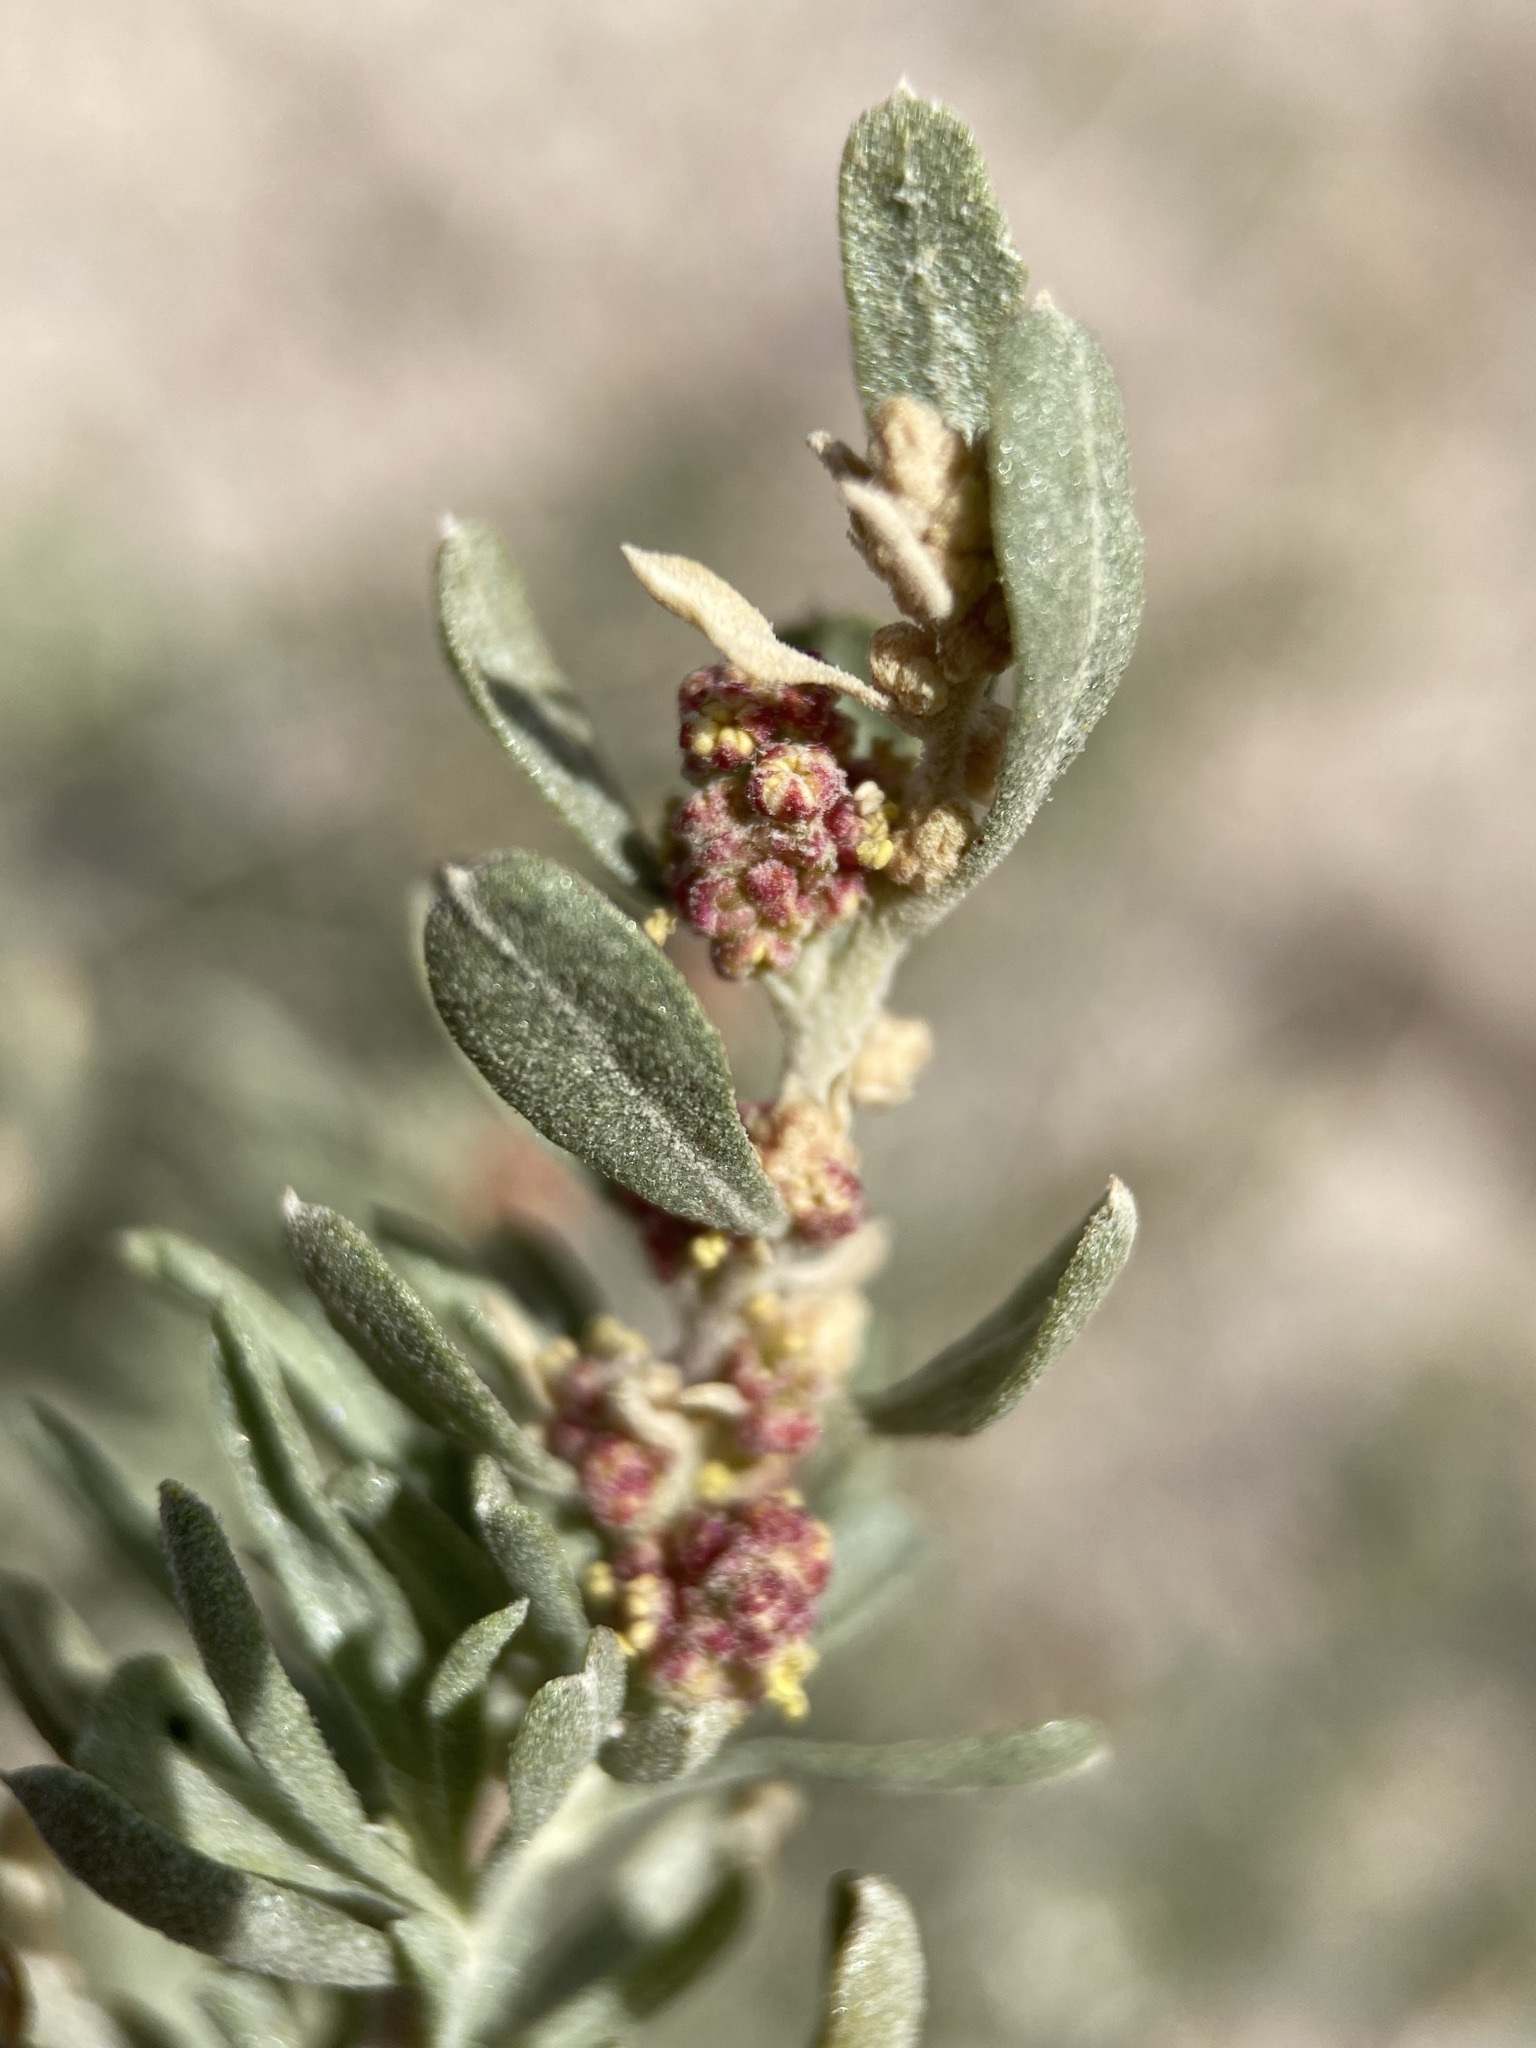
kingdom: Plantae
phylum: Tracheophyta
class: Magnoliopsida
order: Caryophyllales
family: Amaranthaceae
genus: Atriplex
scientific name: Atriplex canescens
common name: Four-wing saltbush
